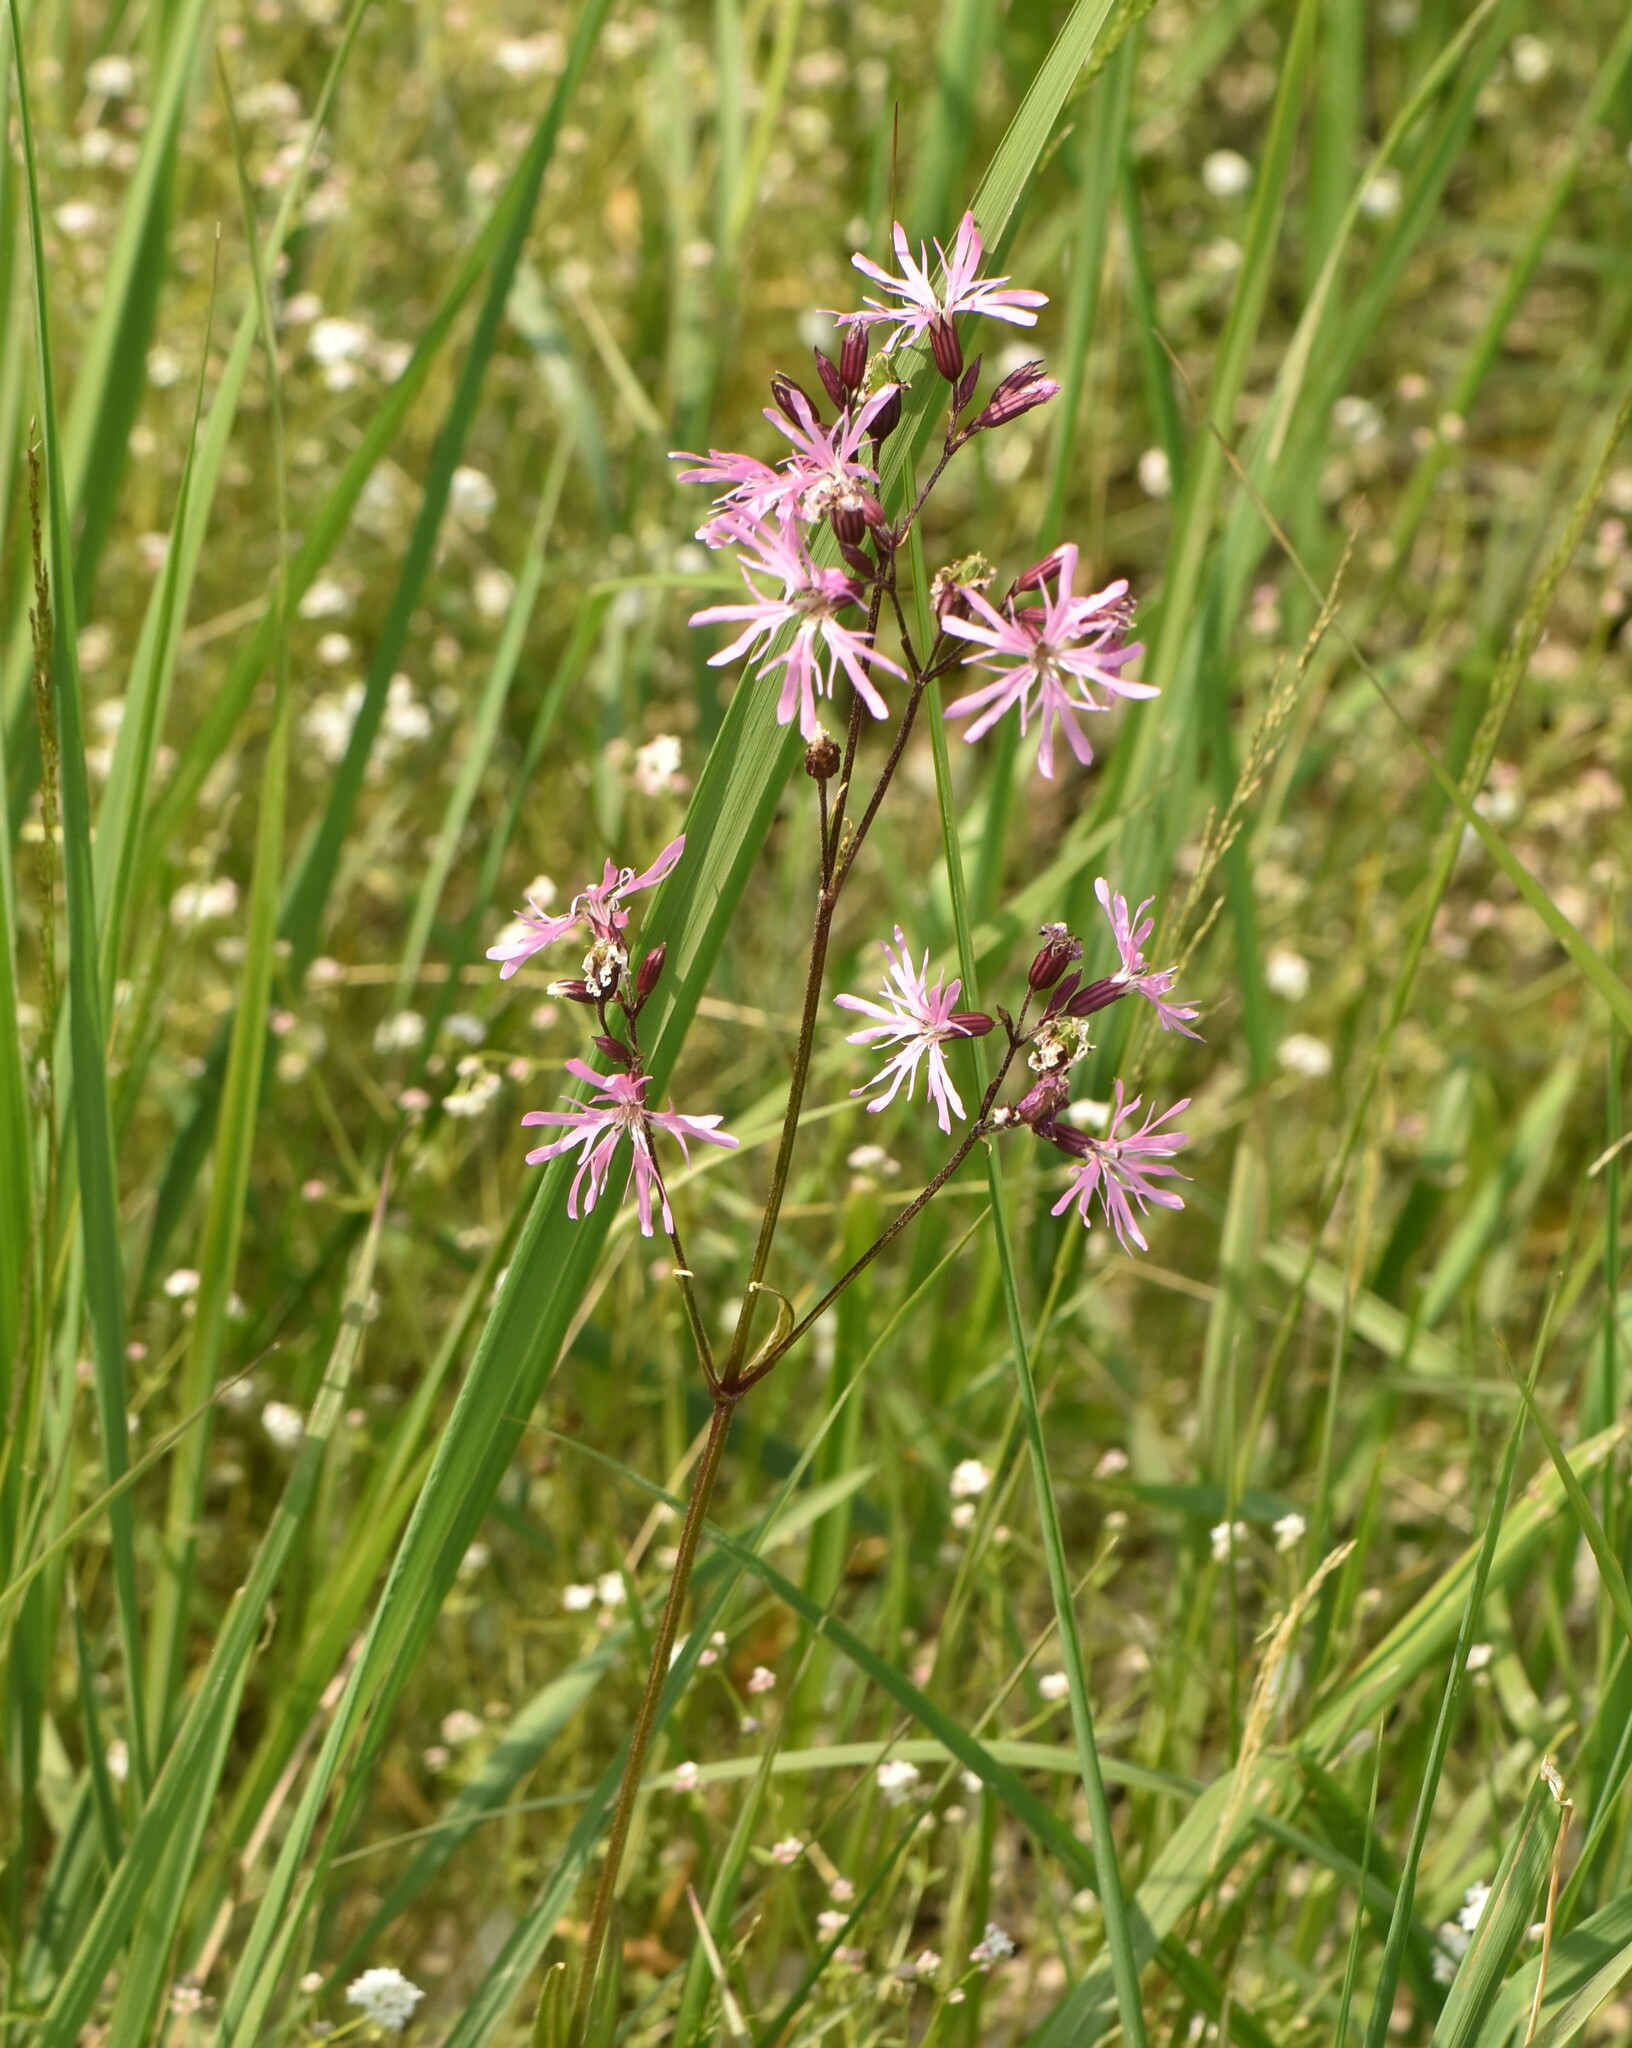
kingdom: Plantae
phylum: Tracheophyta
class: Magnoliopsida
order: Caryophyllales
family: Caryophyllaceae
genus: Silene
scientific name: Silene flos-cuculi
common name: Ragged-robin
